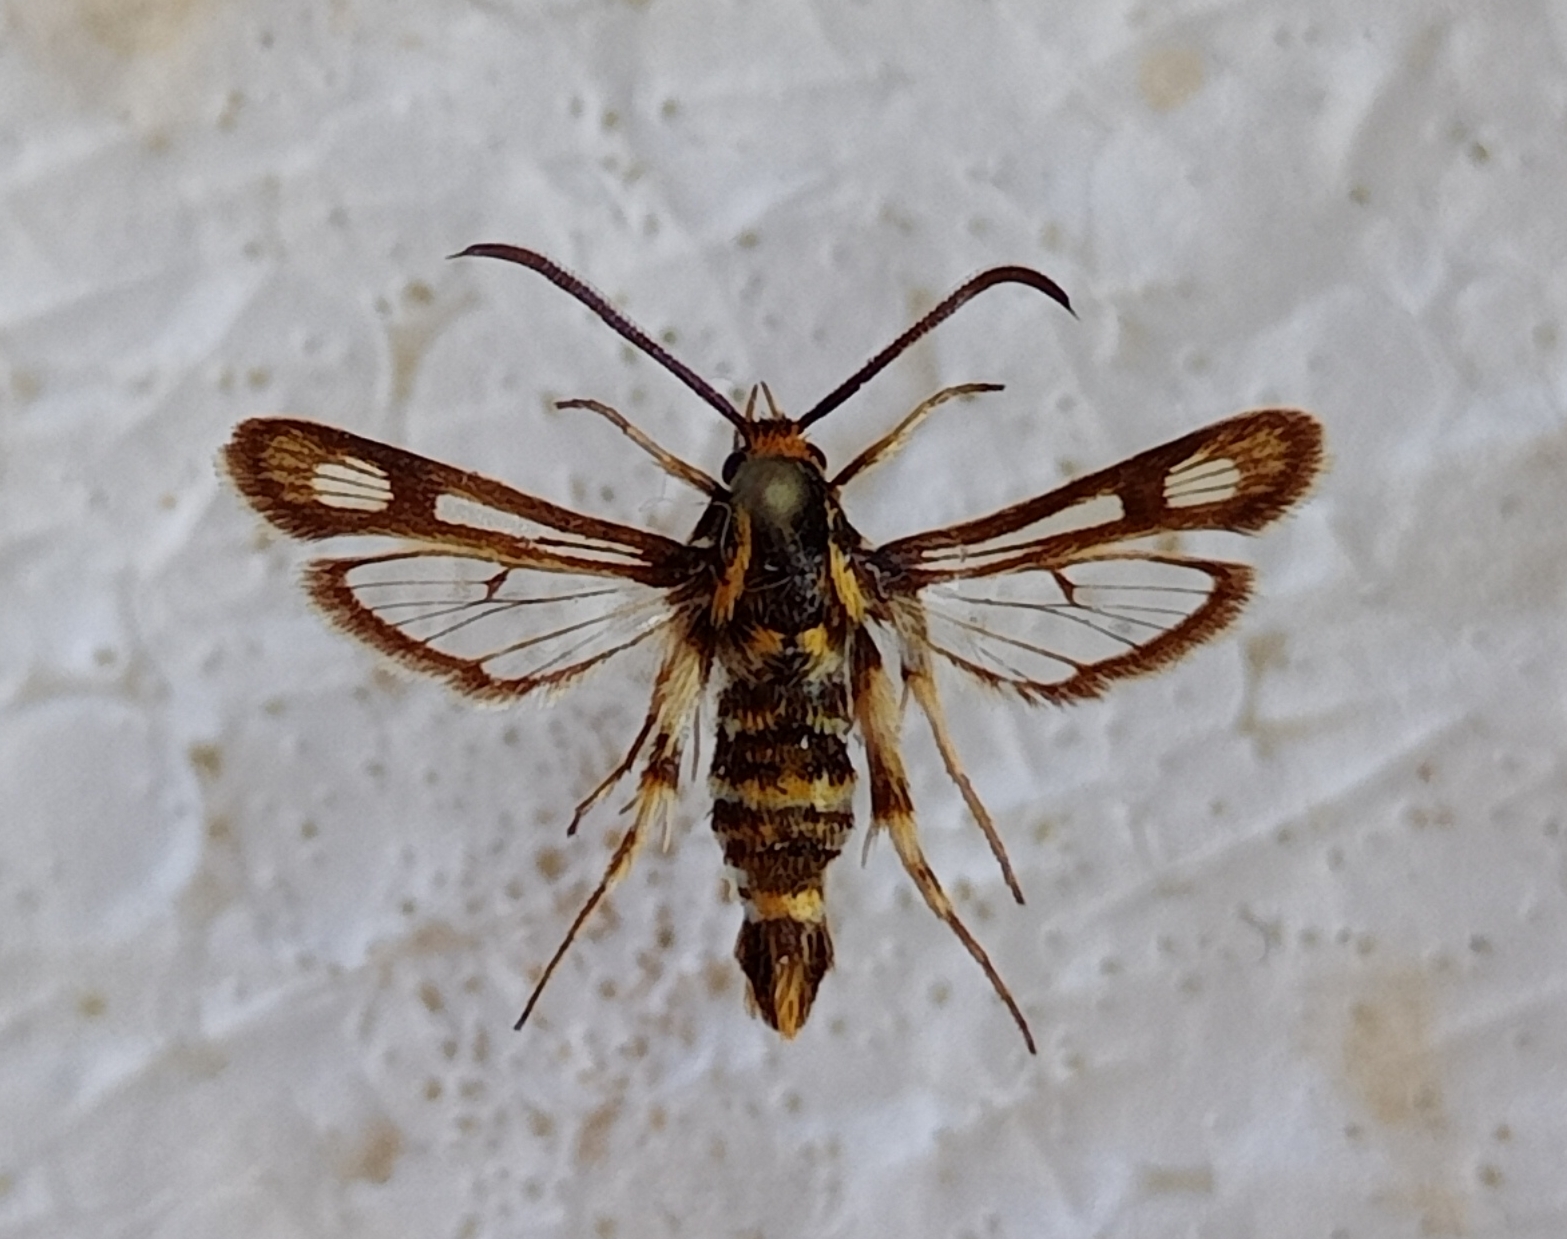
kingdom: Animalia
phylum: Arthropoda
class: Insecta
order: Lepidoptera
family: Sesiidae
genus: Chamaesphecia
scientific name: Chamaesphecia annellata
